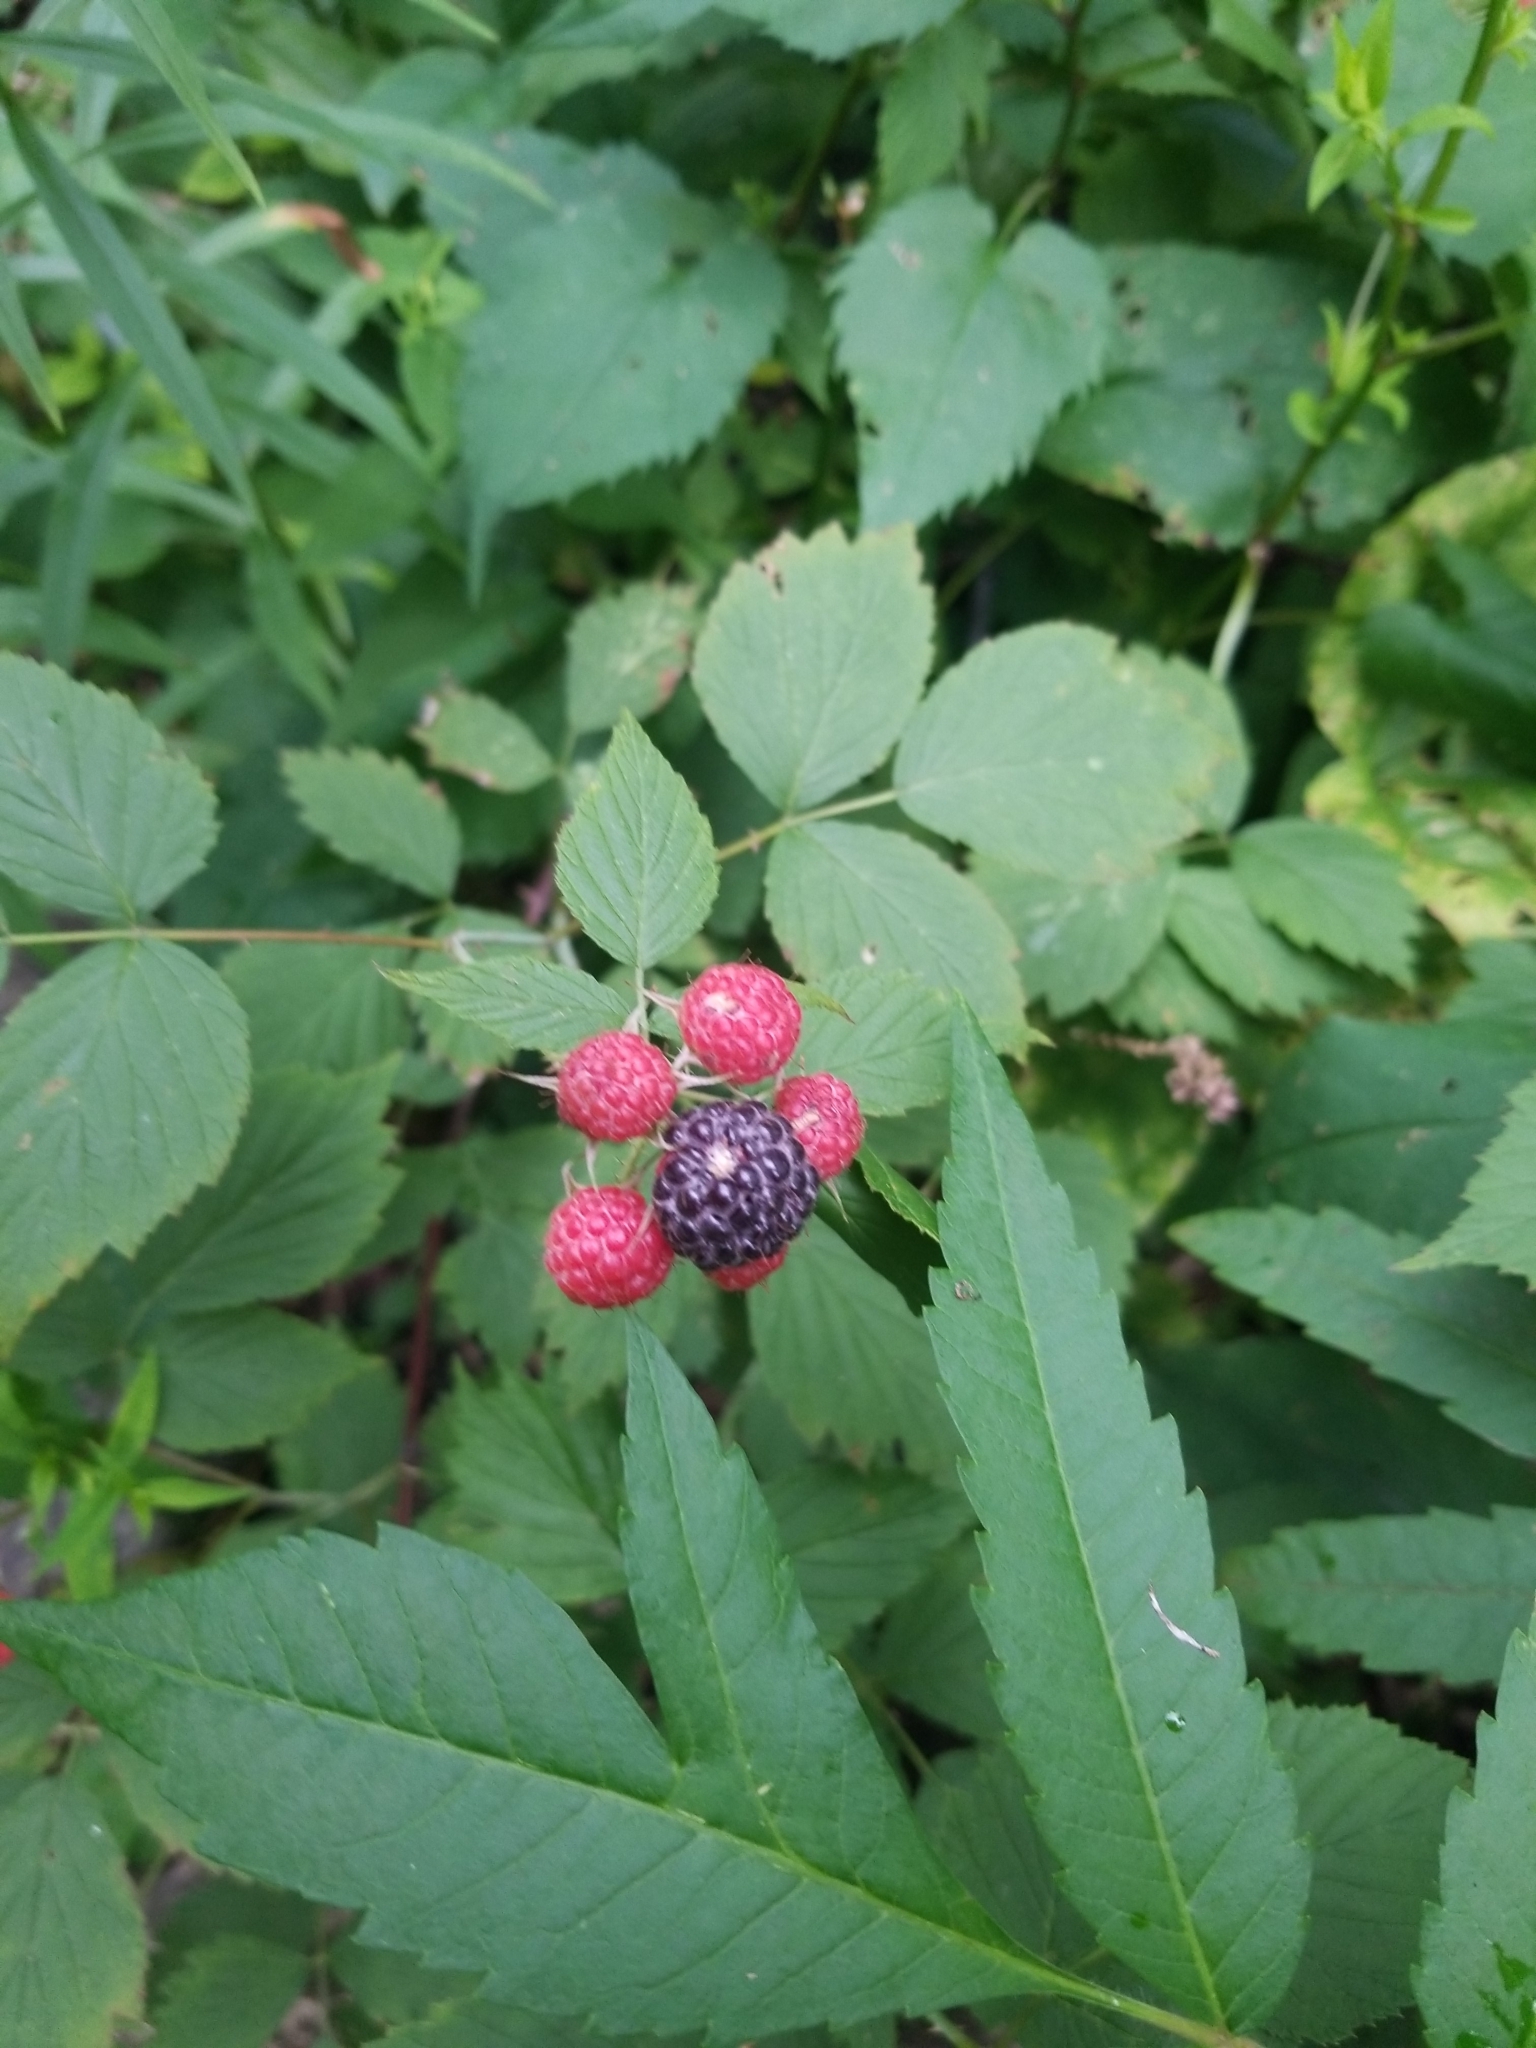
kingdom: Plantae
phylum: Tracheophyta
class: Magnoliopsida
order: Rosales
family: Rosaceae
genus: Rubus
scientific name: Rubus occidentalis
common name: Black raspberry
